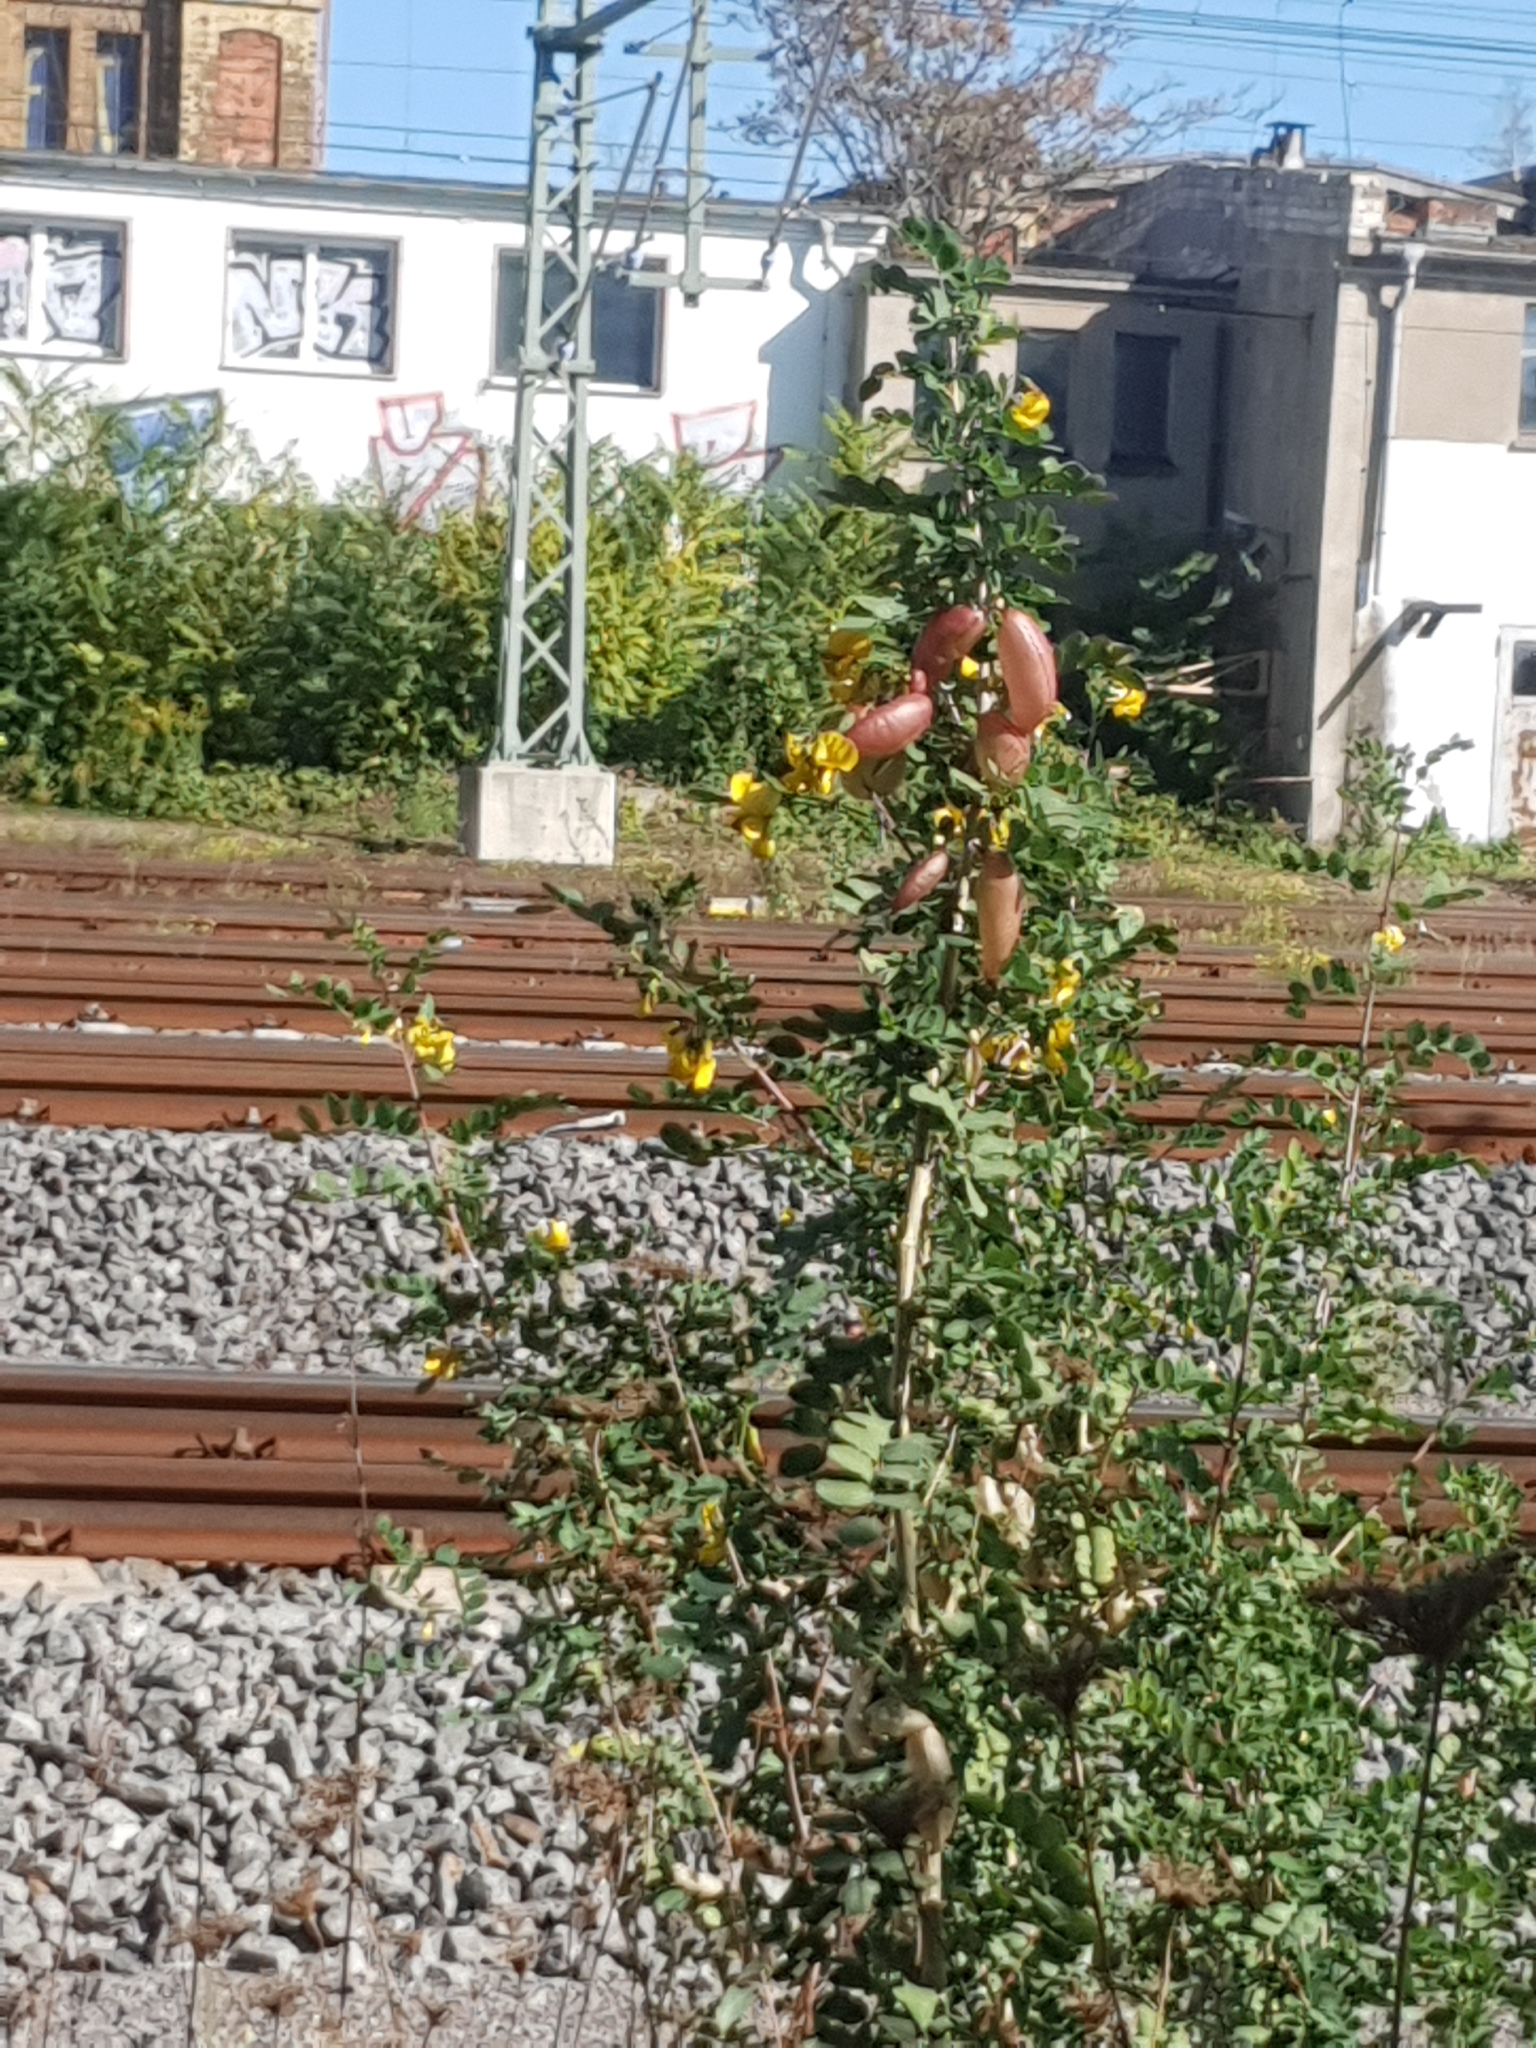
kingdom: Plantae
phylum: Tracheophyta
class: Magnoliopsida
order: Fabales
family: Fabaceae
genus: Colutea
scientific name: Colutea arborescens
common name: Bladder-senna
